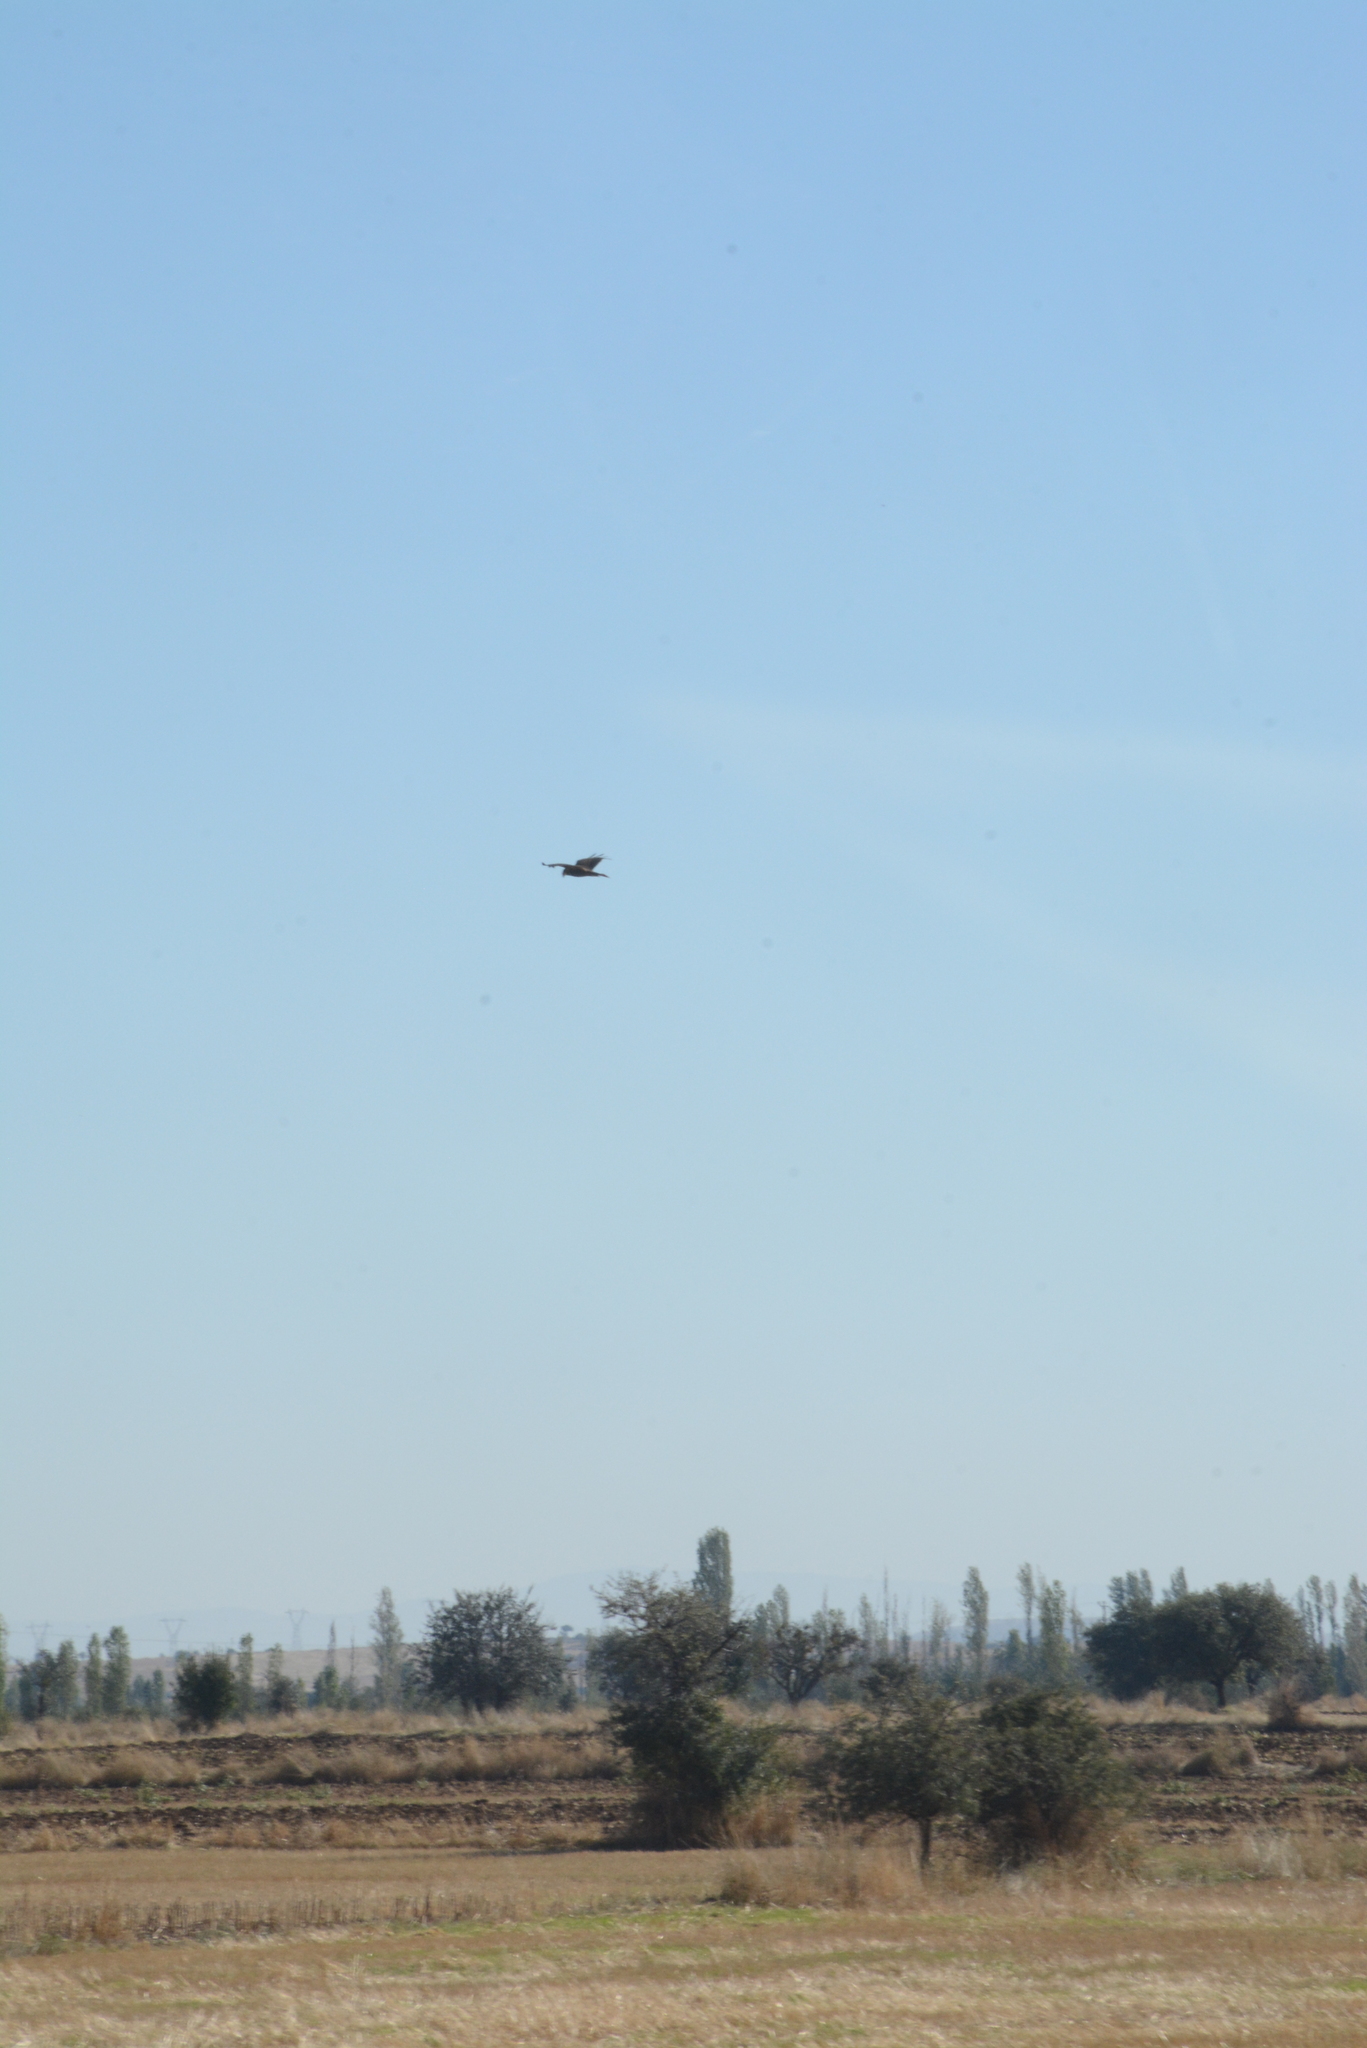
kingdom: Animalia
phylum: Chordata
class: Aves
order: Accipitriformes
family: Accipitridae
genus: Circus
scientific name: Circus aeruginosus
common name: Western marsh harrier
